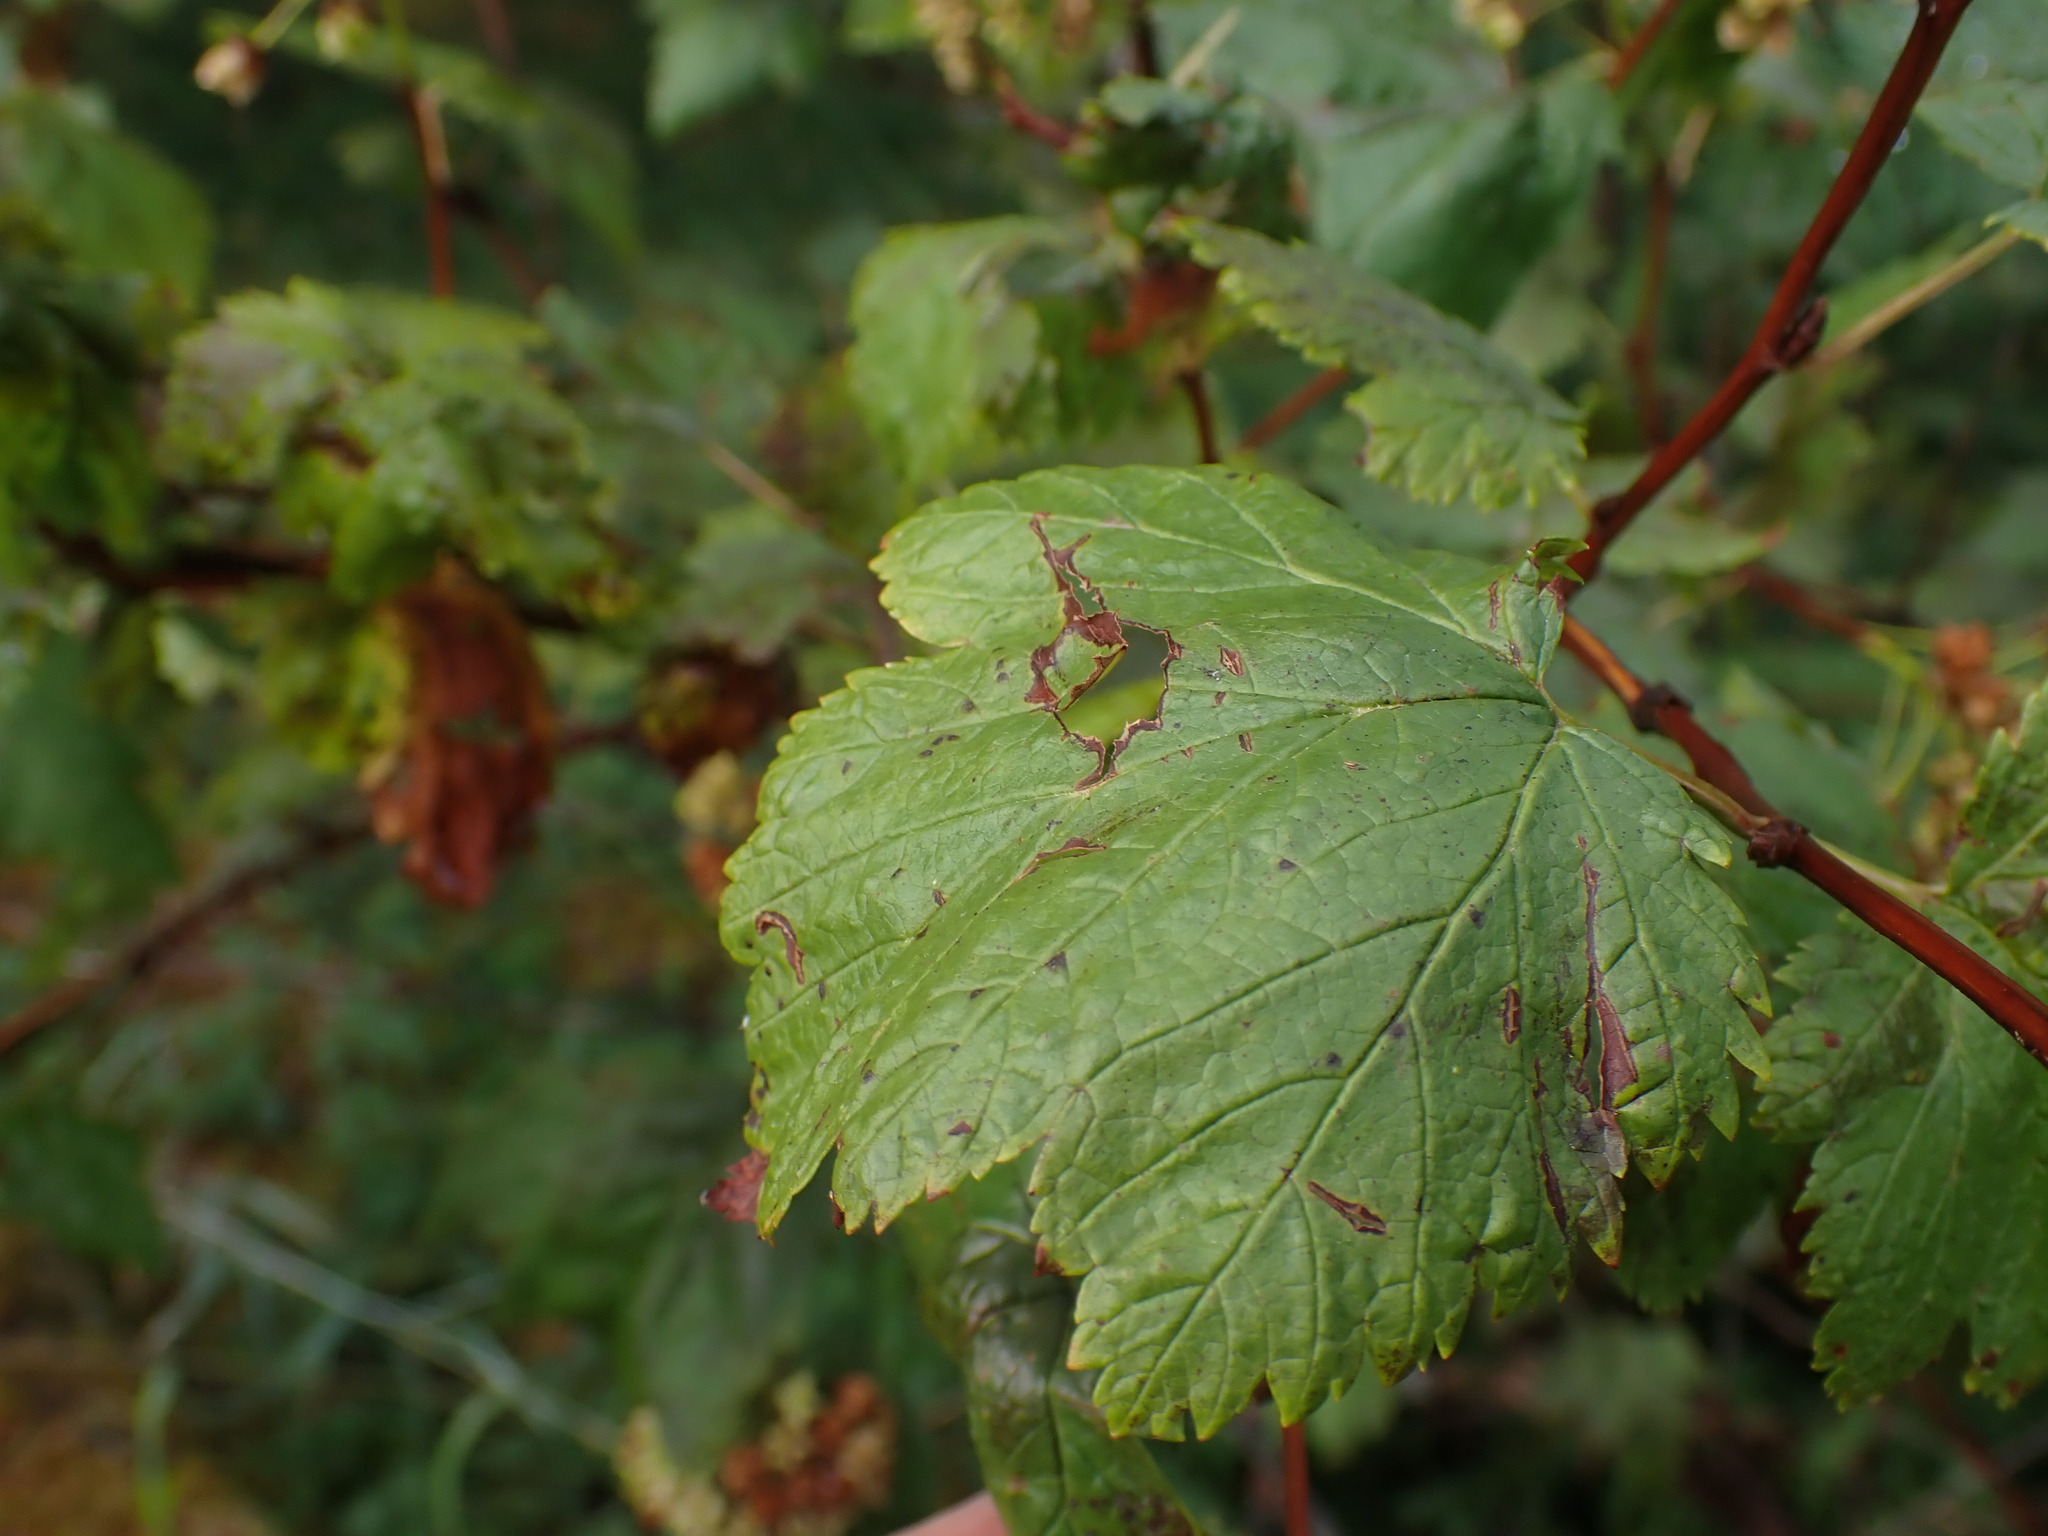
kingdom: Plantae
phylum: Tracheophyta
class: Magnoliopsida
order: Rosales
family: Rosaceae
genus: Physocarpus
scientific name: Physocarpus capitatus
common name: Pacific ninebark
